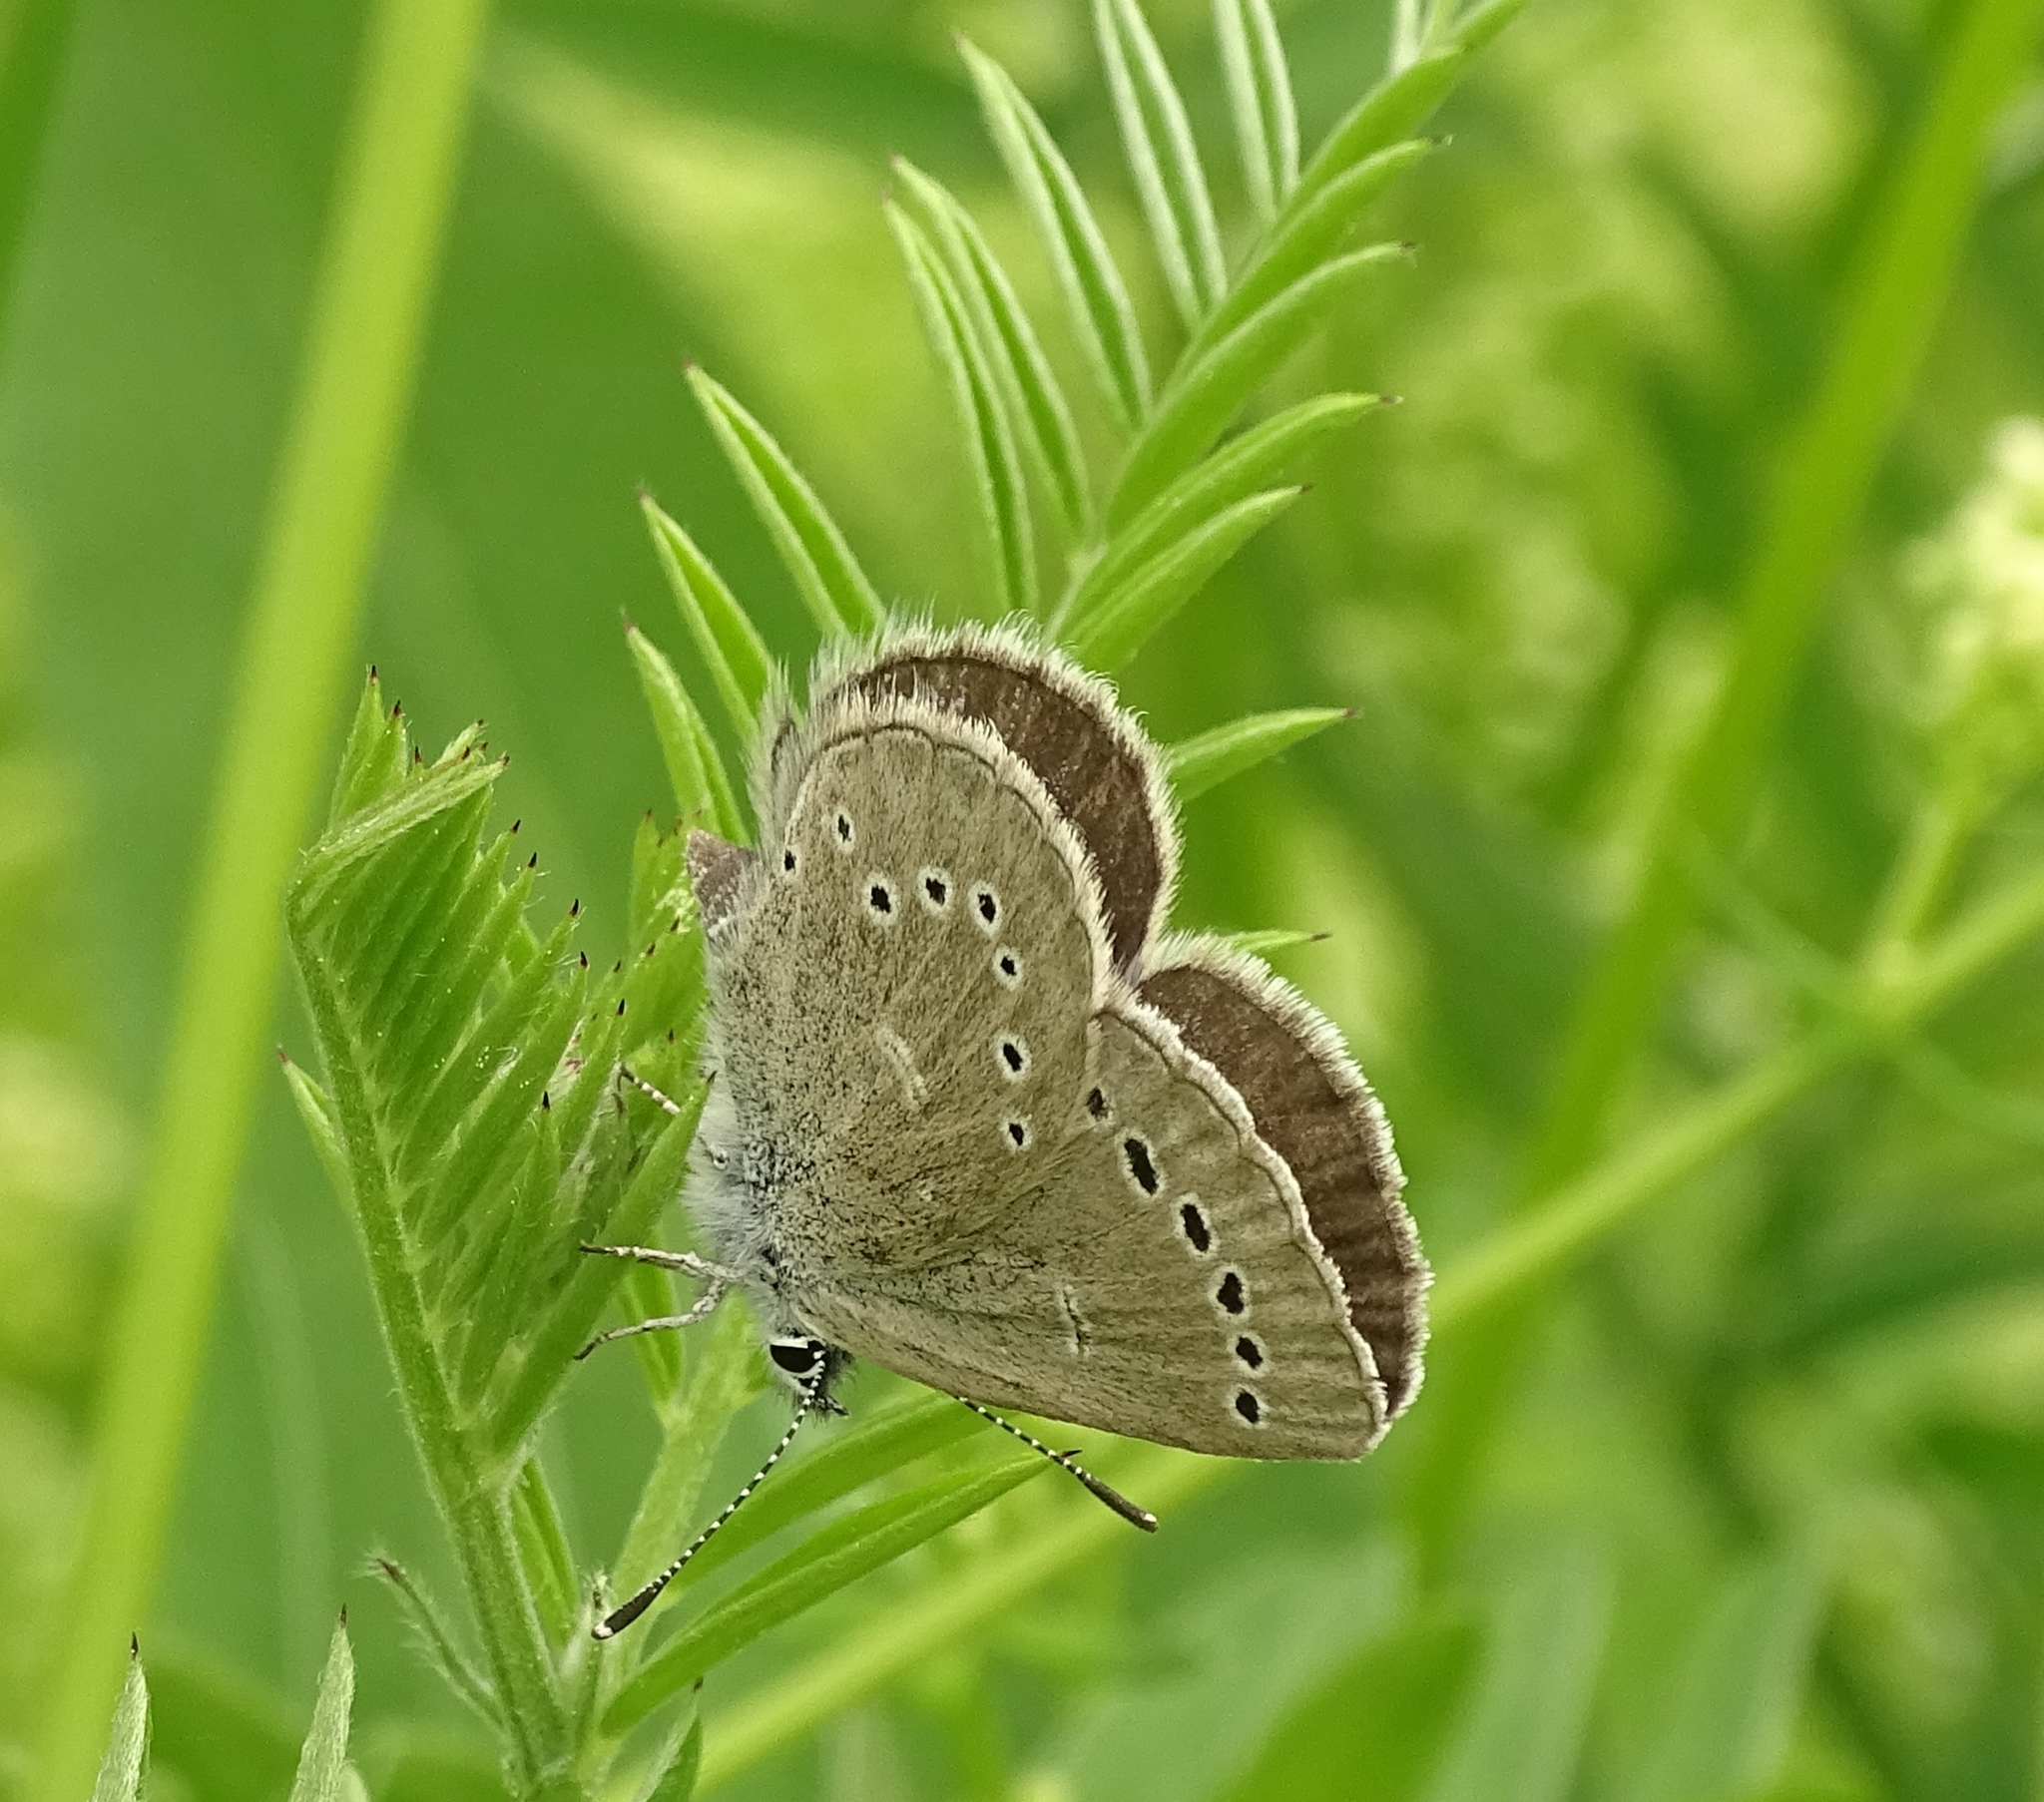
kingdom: Animalia
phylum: Arthropoda
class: Insecta
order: Lepidoptera
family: Lycaenidae
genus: Glaucopsyche
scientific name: Glaucopsyche lygdamus
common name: Silvery blue
